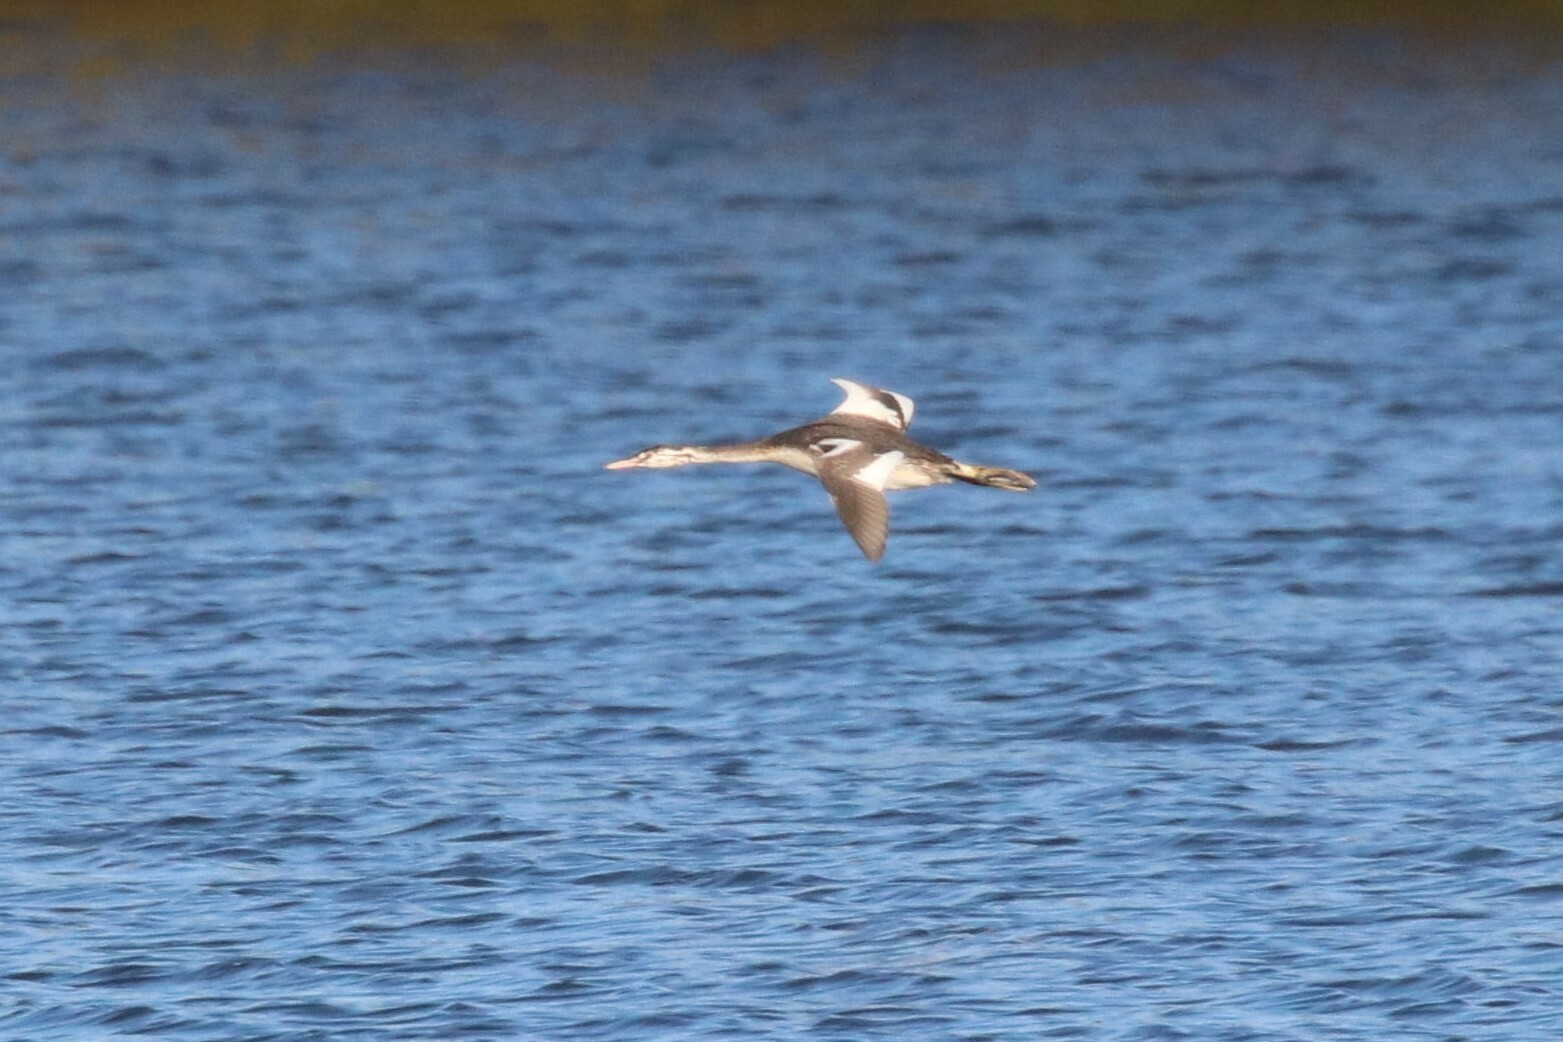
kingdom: Animalia
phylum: Chordata
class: Aves
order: Podicipediformes
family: Podicipedidae
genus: Podiceps
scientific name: Podiceps cristatus
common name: Great crested grebe
